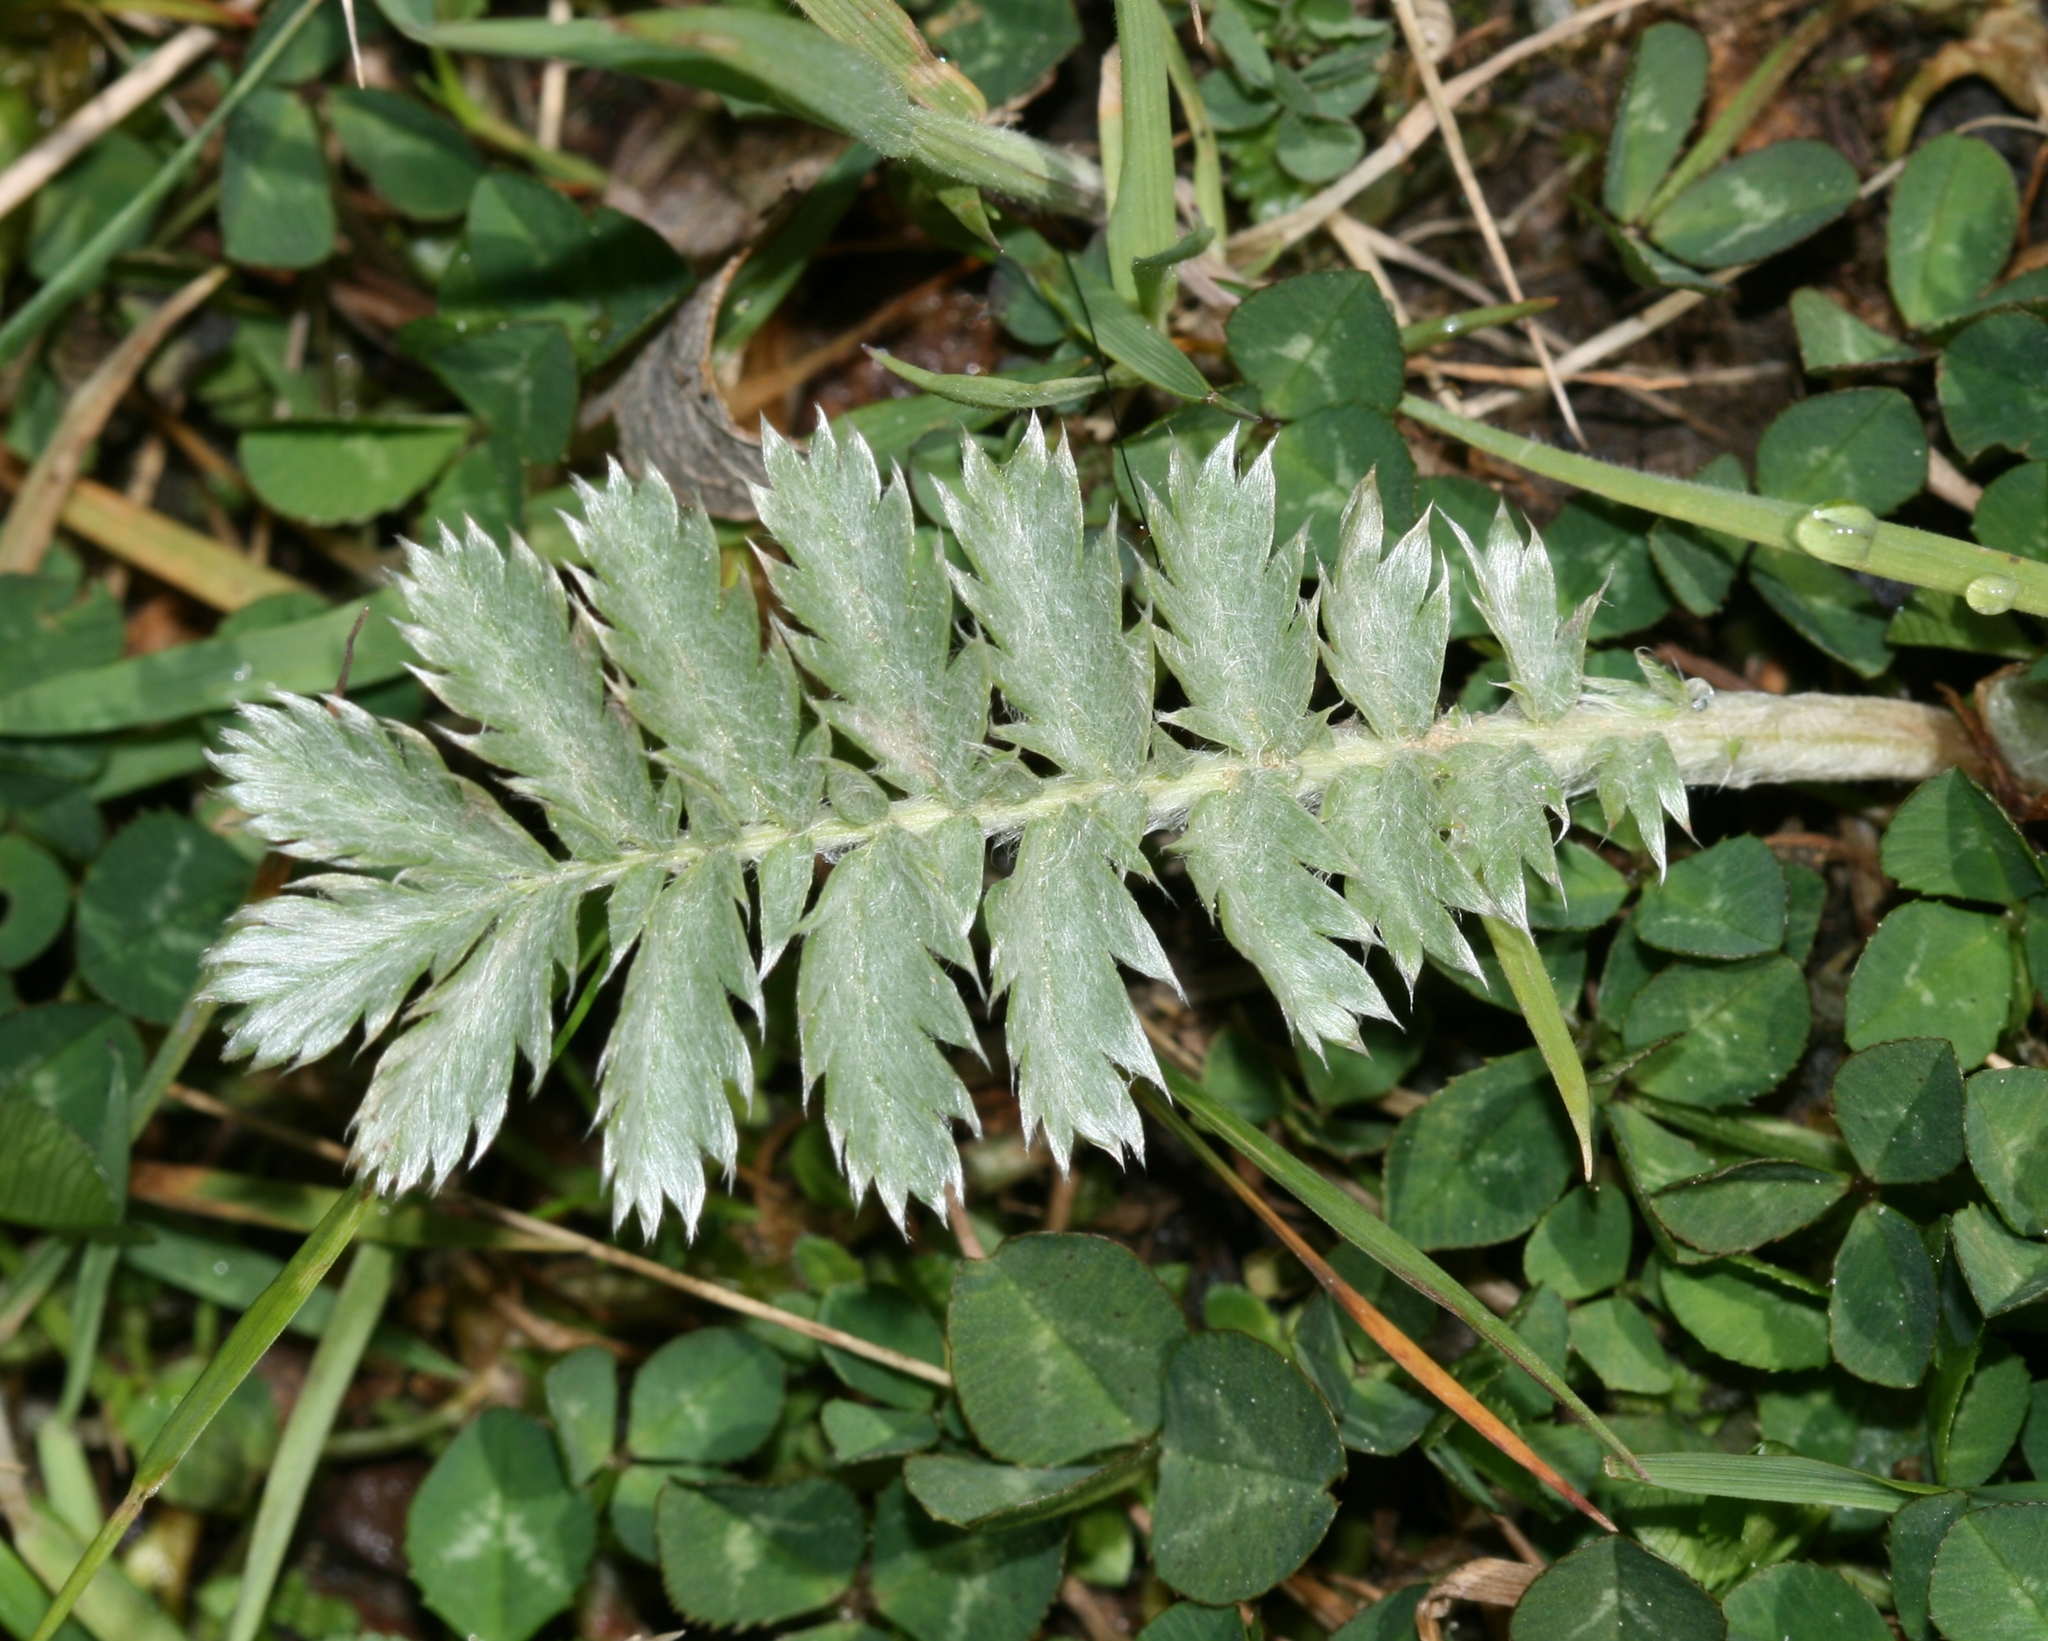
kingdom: Plantae
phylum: Tracheophyta
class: Magnoliopsida
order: Rosales
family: Rosaceae
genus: Argentina
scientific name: Argentina anserina
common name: Common silverweed
